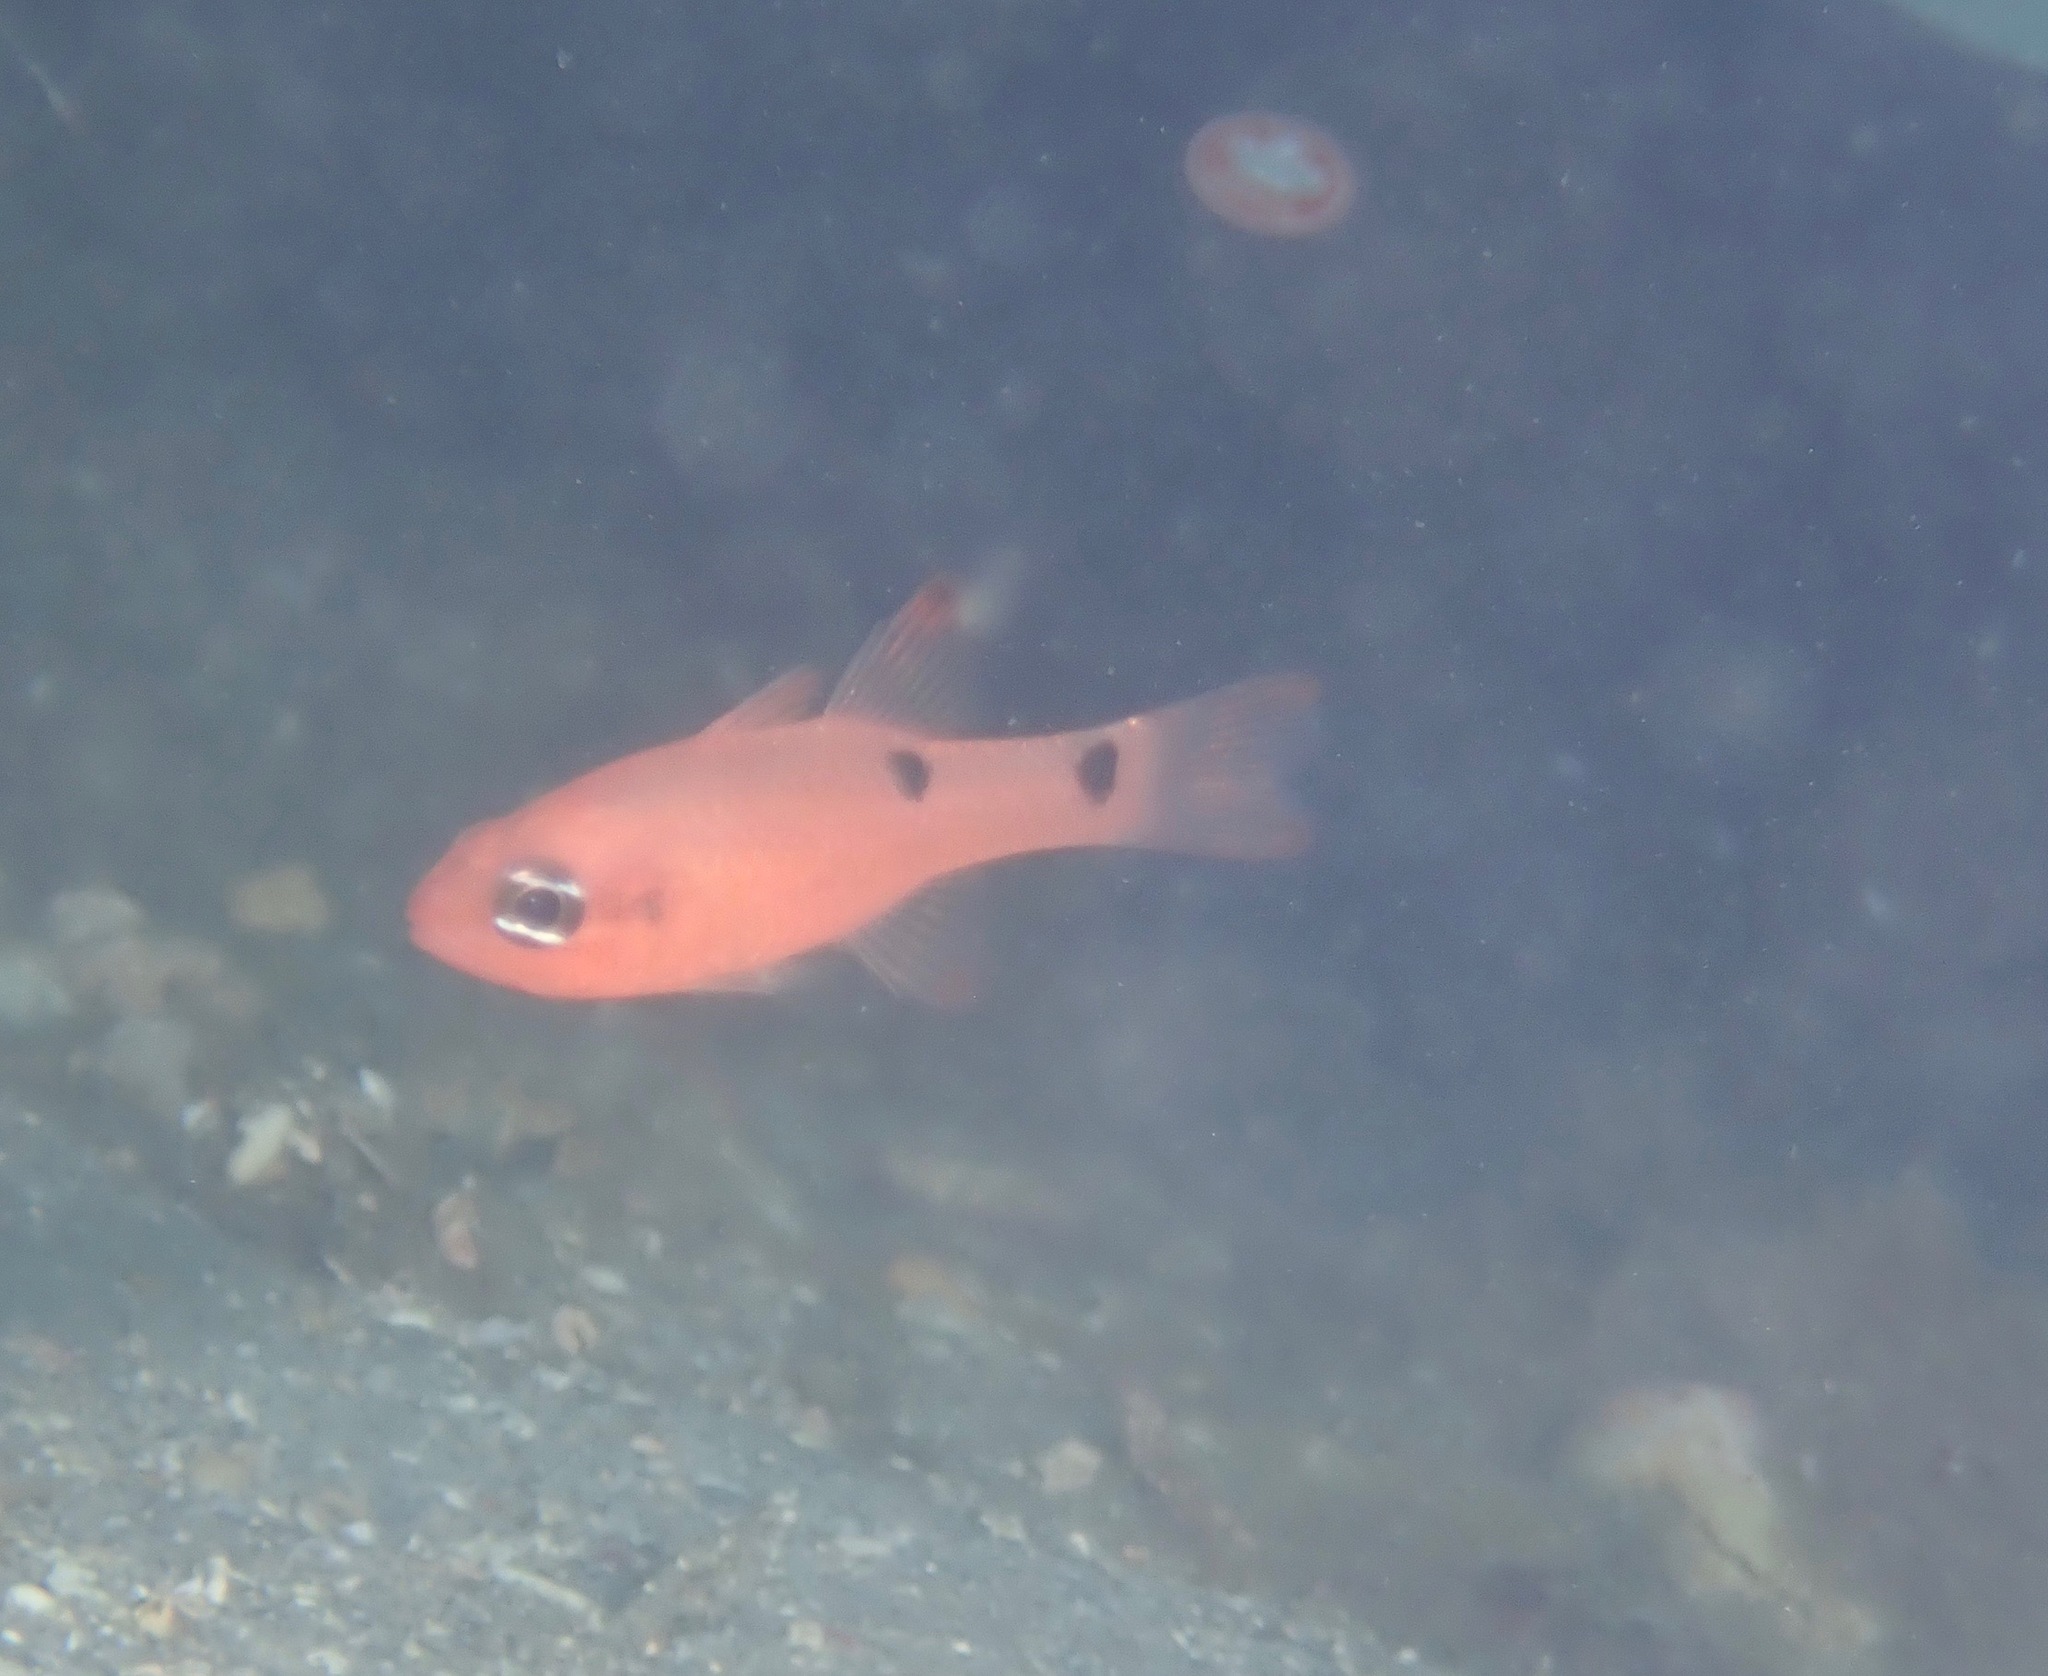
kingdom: Animalia
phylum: Chordata
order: Perciformes
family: Apogonidae
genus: Apogon
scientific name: Apogon pseudomaculatus
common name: Twospot cardinalfish
